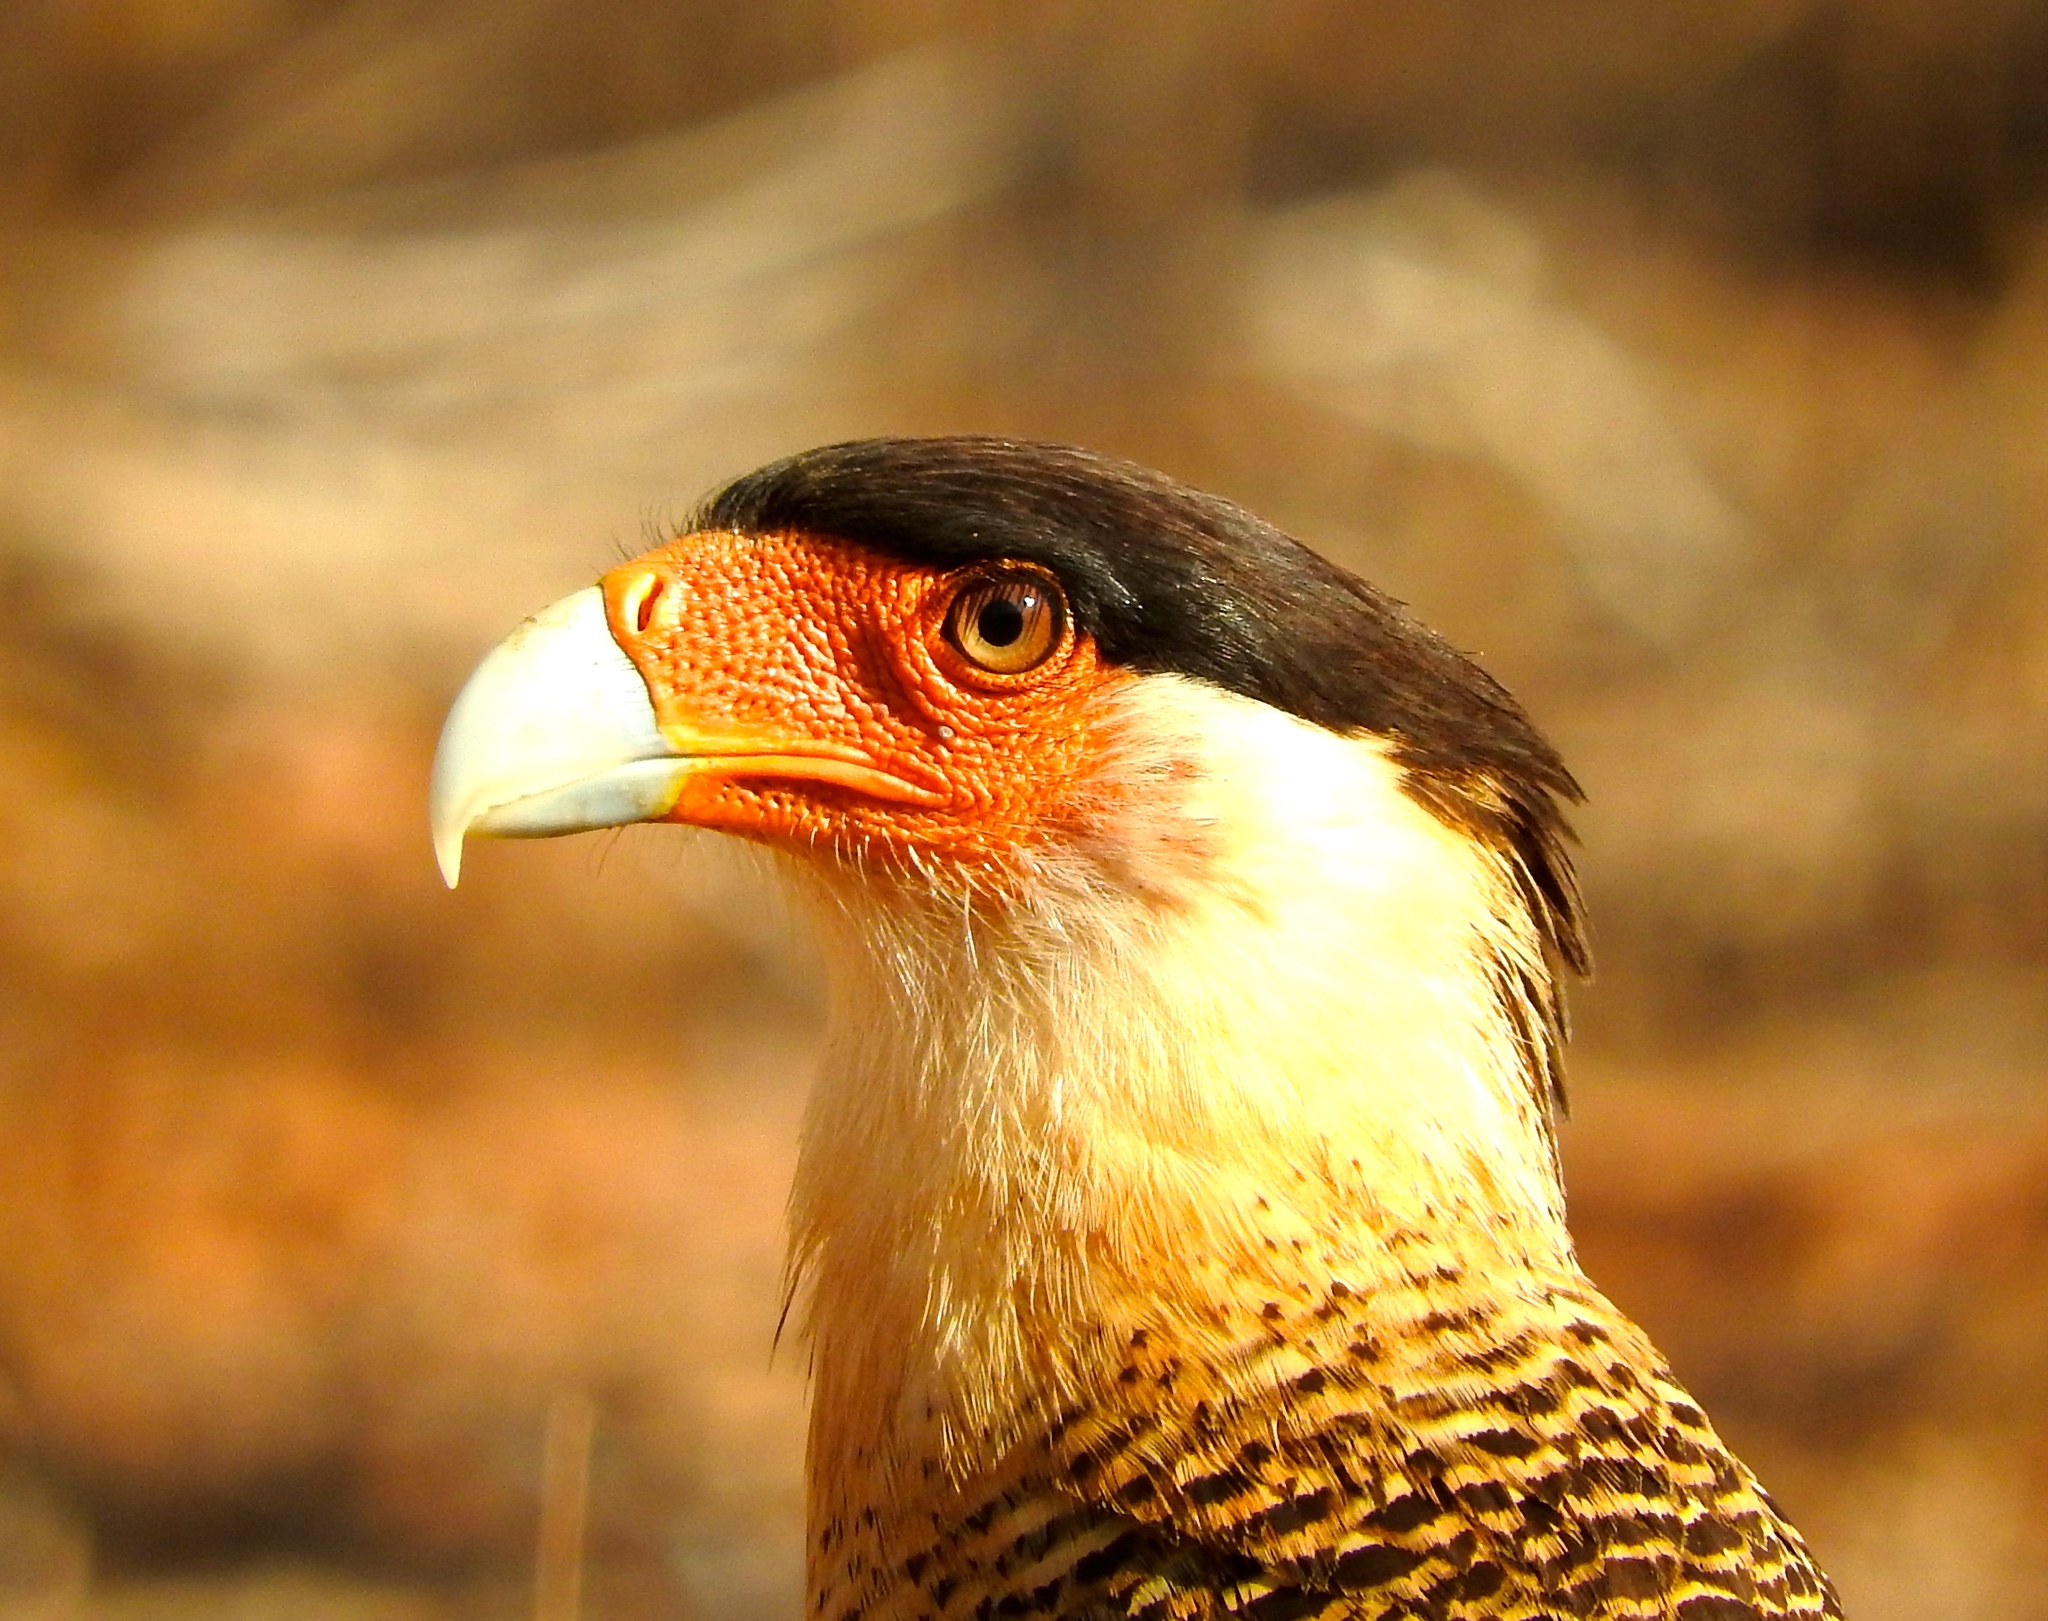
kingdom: Animalia
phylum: Chordata
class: Aves
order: Falconiformes
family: Falconidae
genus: Caracara
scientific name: Caracara plancus
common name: Southern caracara
